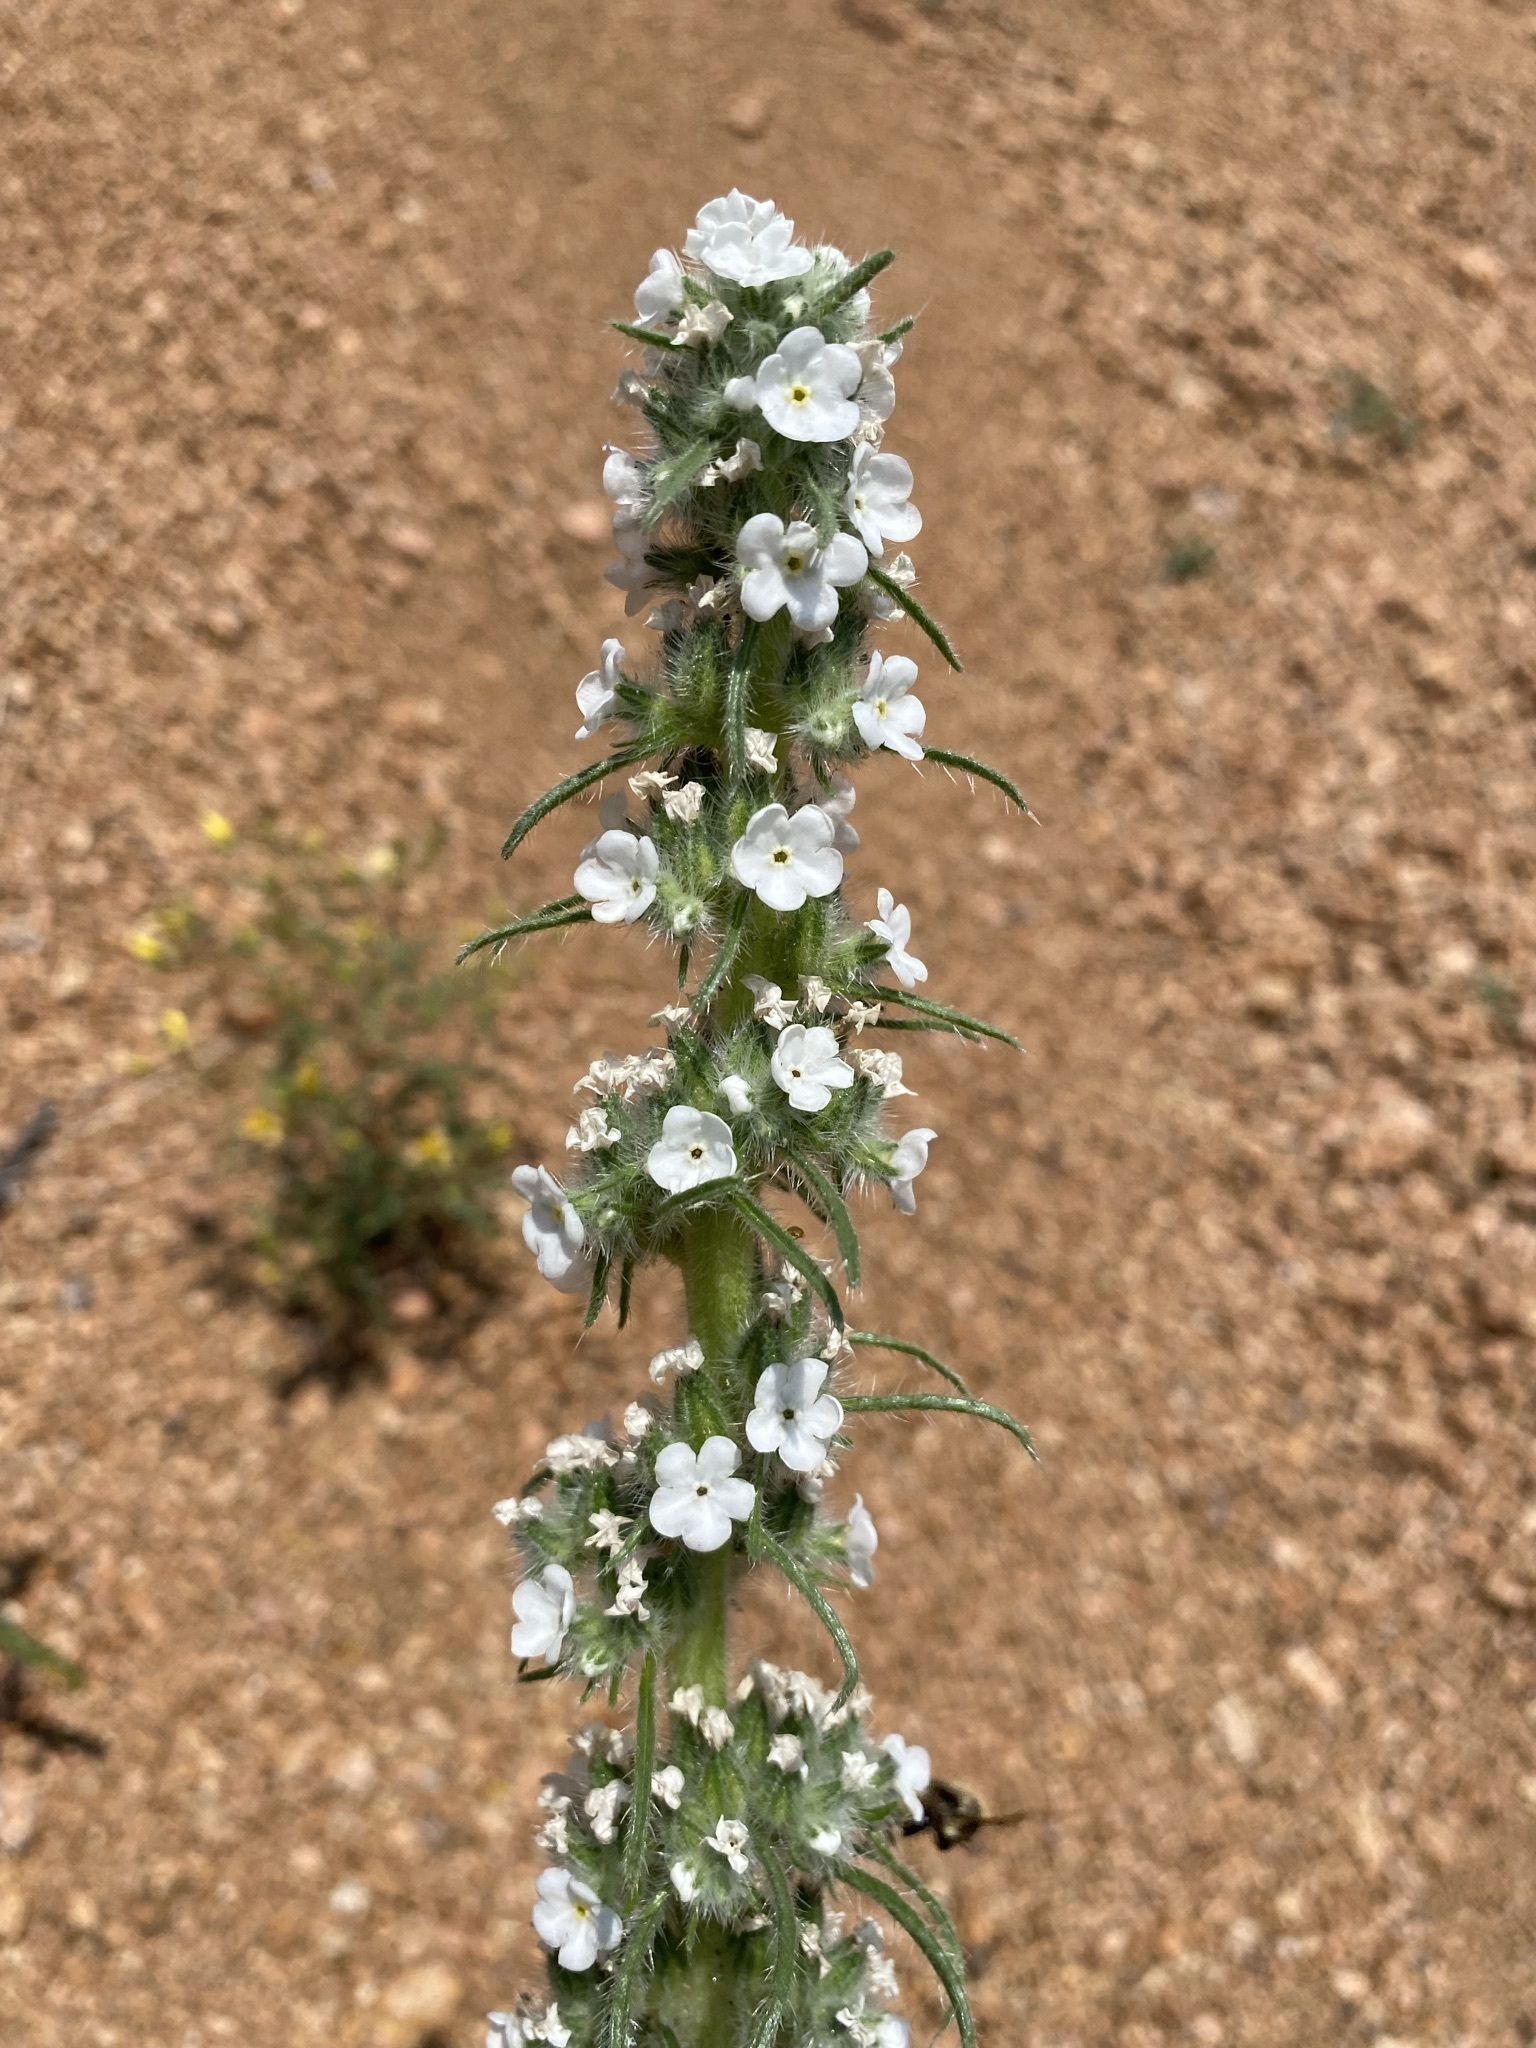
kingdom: Plantae
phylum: Tracheophyta
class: Magnoliopsida
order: Boraginales
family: Boraginaceae
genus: Oreocarya
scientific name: Oreocarya virgata
